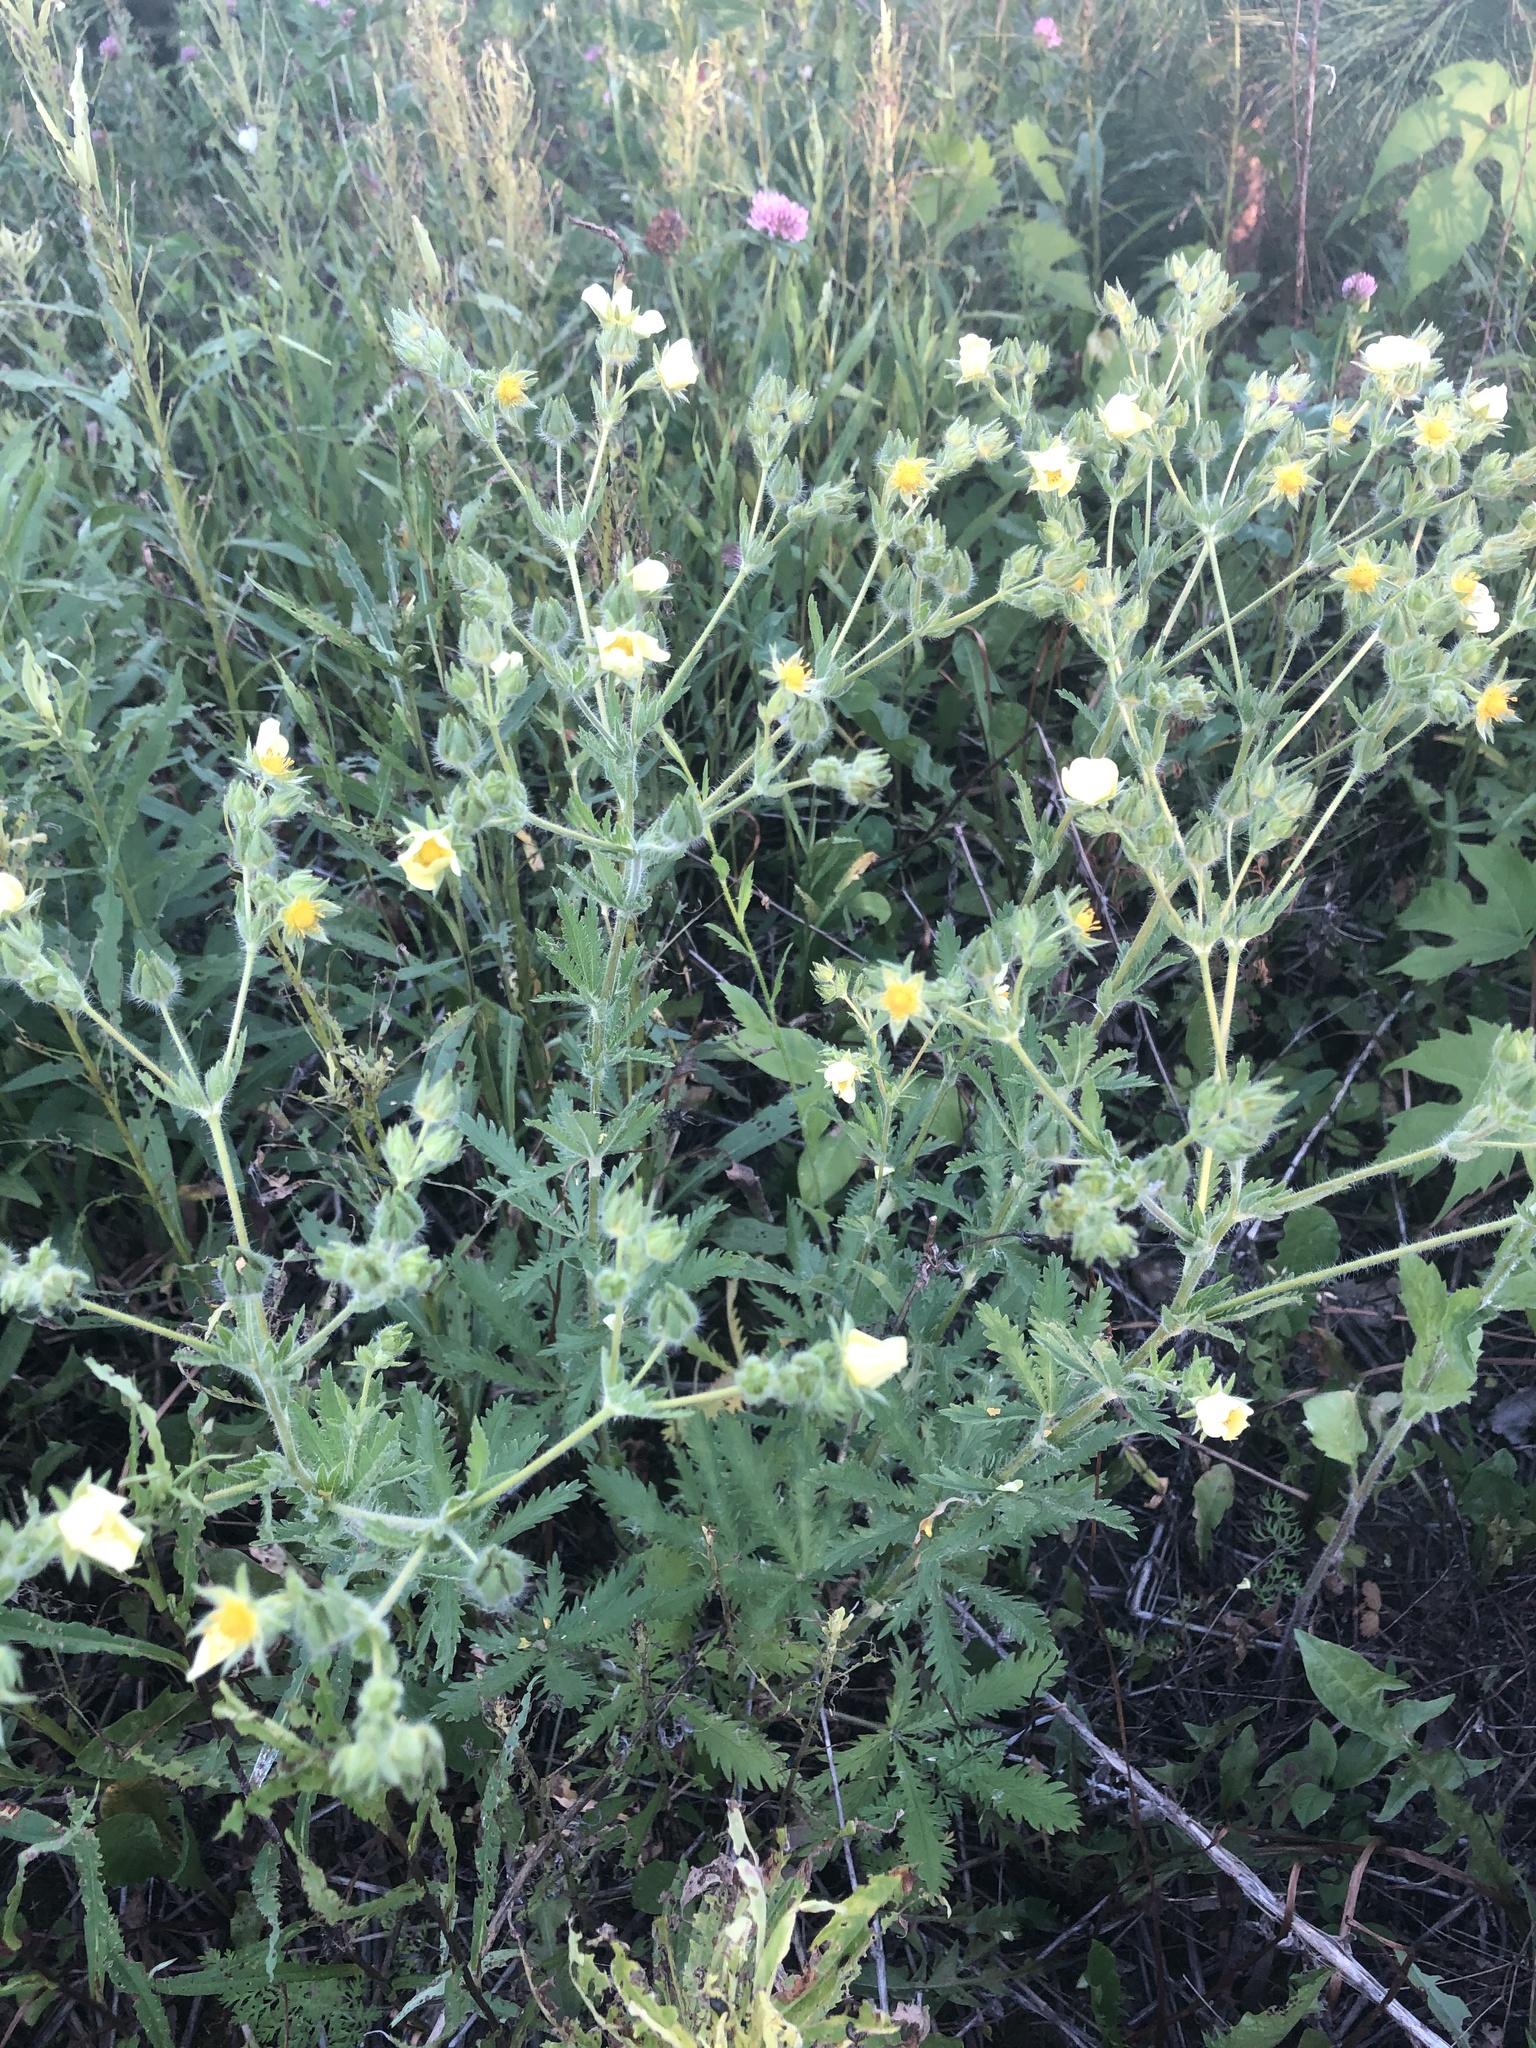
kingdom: Plantae
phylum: Tracheophyta
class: Magnoliopsida
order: Rosales
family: Rosaceae
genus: Potentilla
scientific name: Potentilla recta
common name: Sulphur cinquefoil
